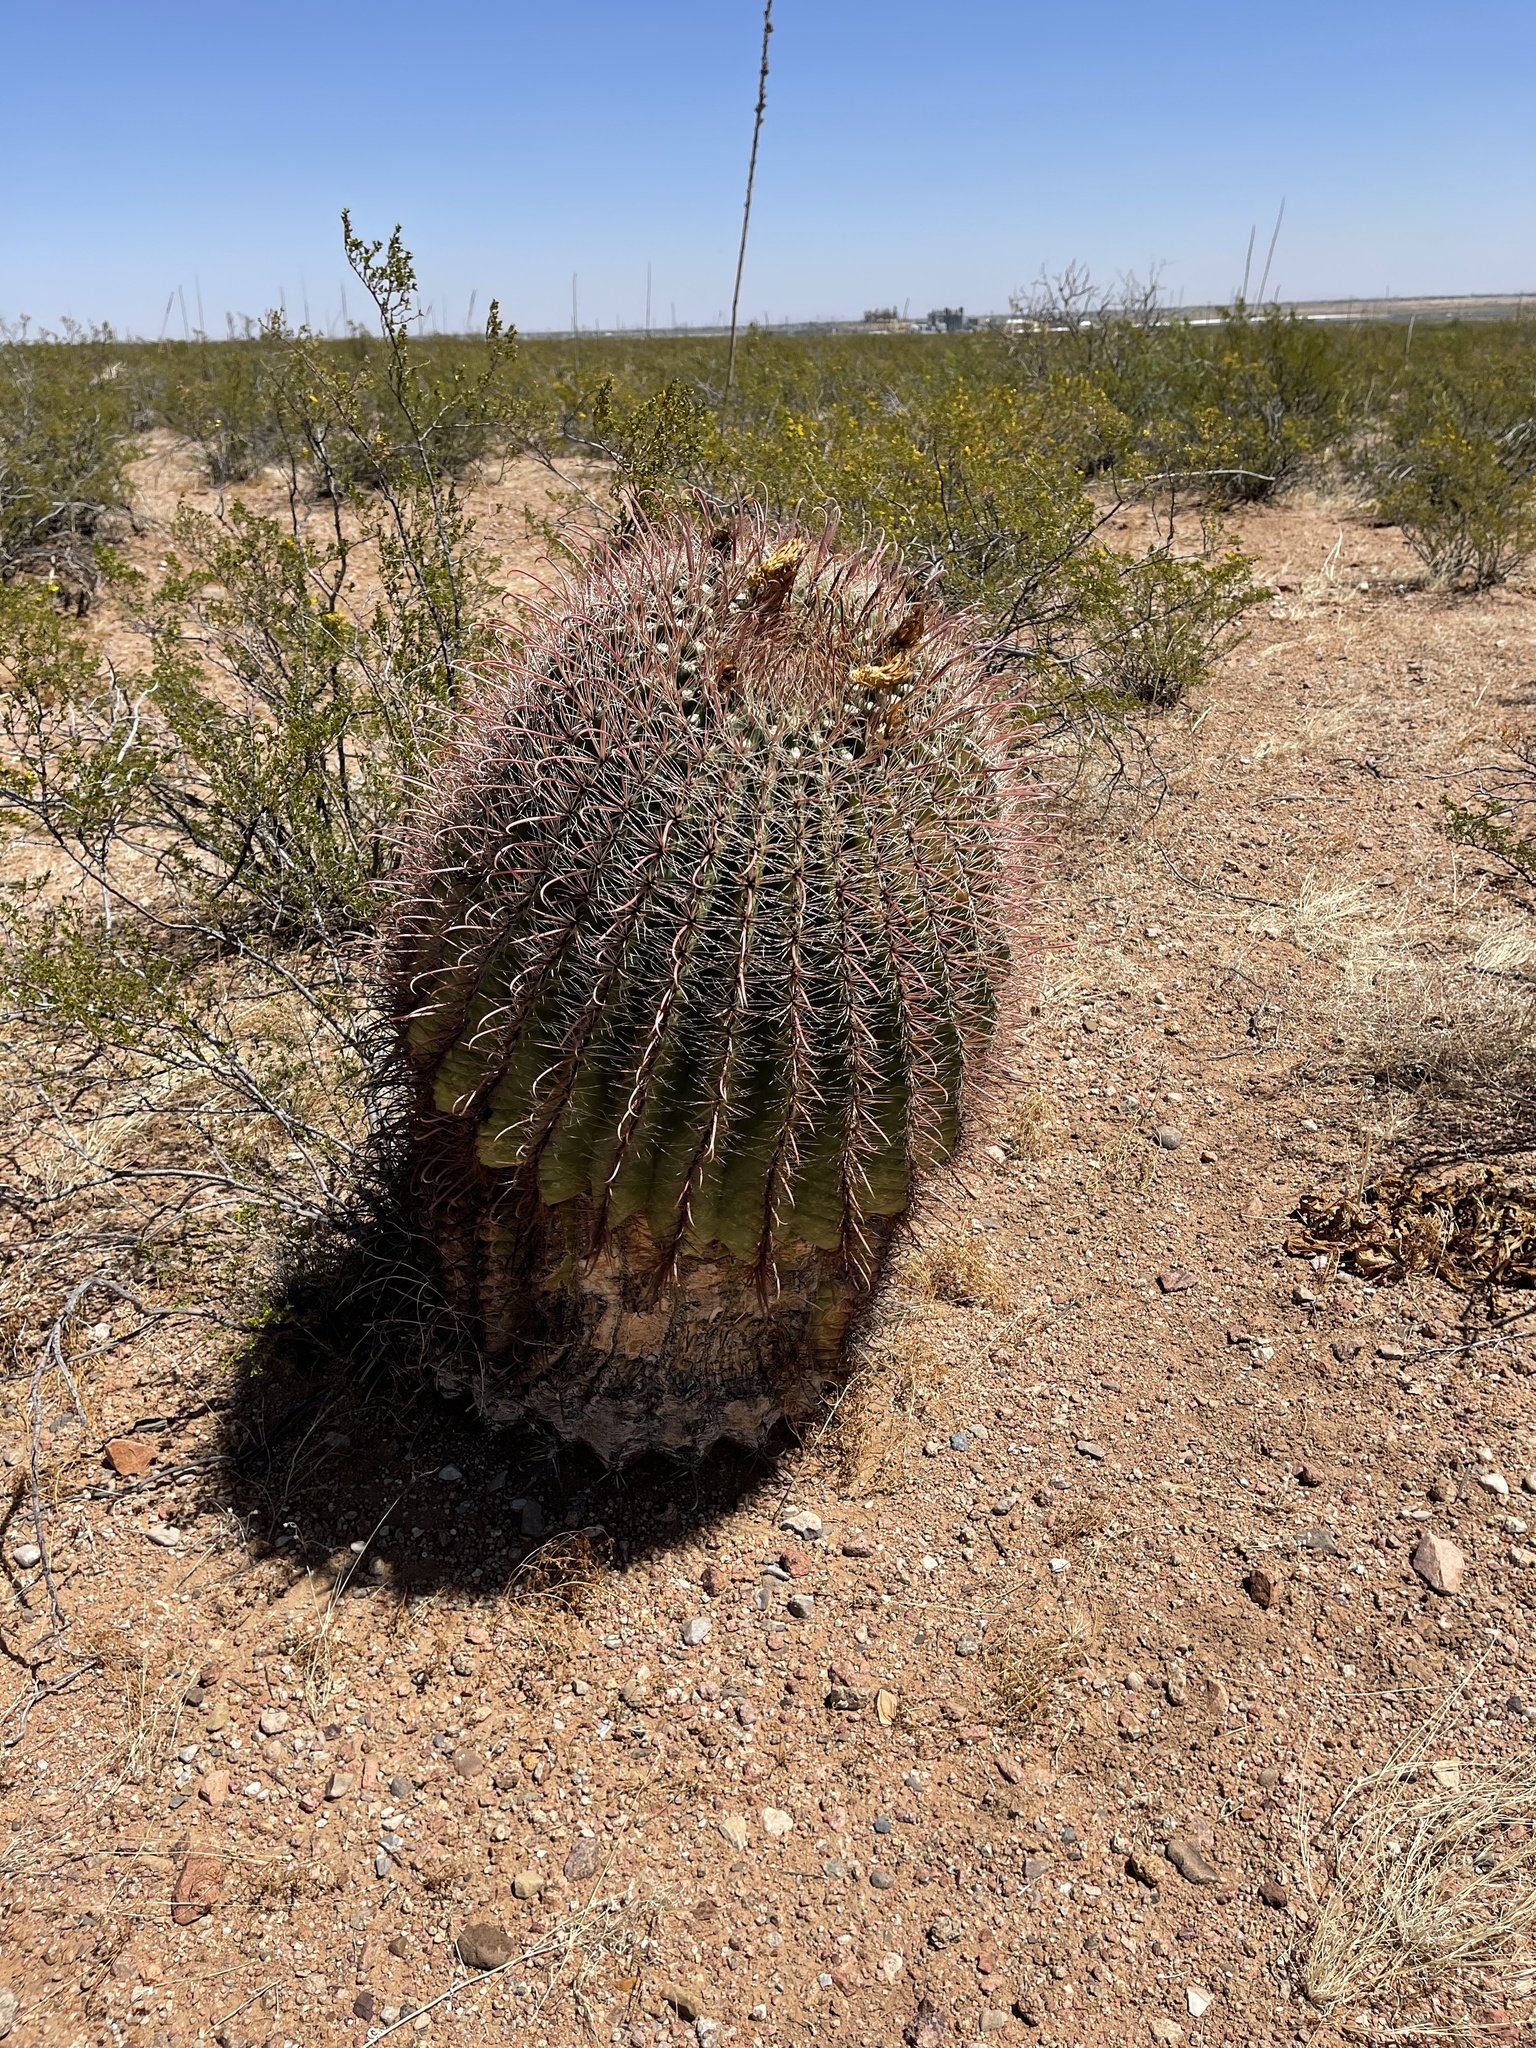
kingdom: Plantae
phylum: Tracheophyta
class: Magnoliopsida
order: Caryophyllales
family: Cactaceae
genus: Ferocactus
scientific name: Ferocactus wislizeni
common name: Candy barrel cactus
